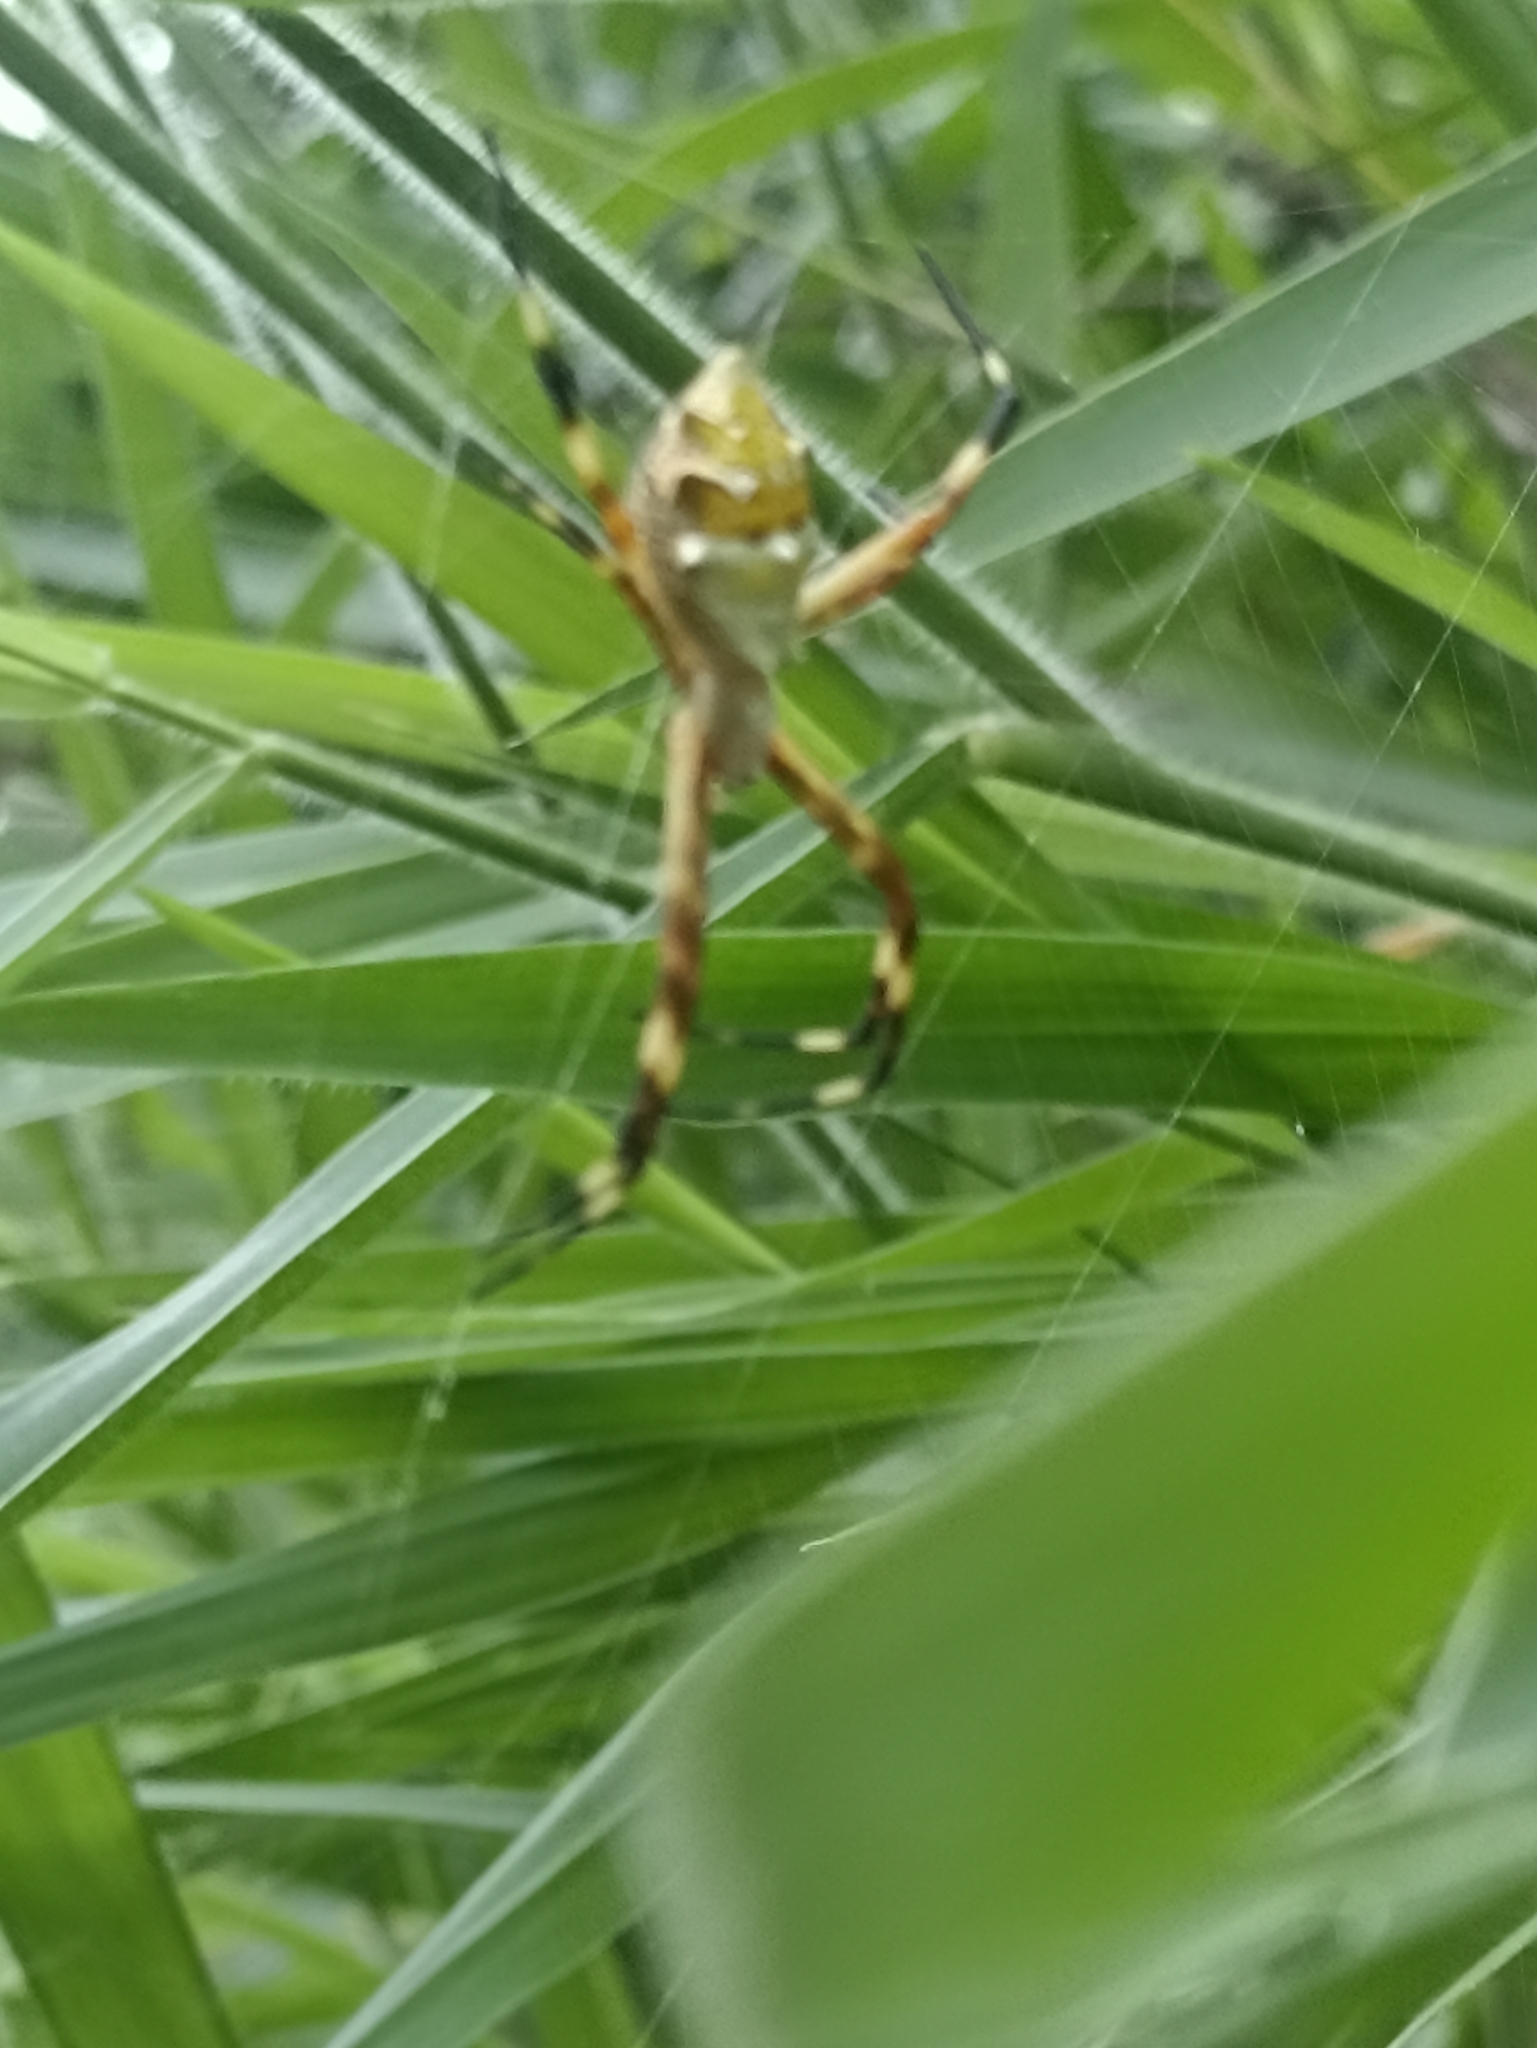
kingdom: Animalia
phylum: Arthropoda
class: Arachnida
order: Araneae
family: Araneidae
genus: Argiope
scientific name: Argiope argentata
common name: Orb weavers
